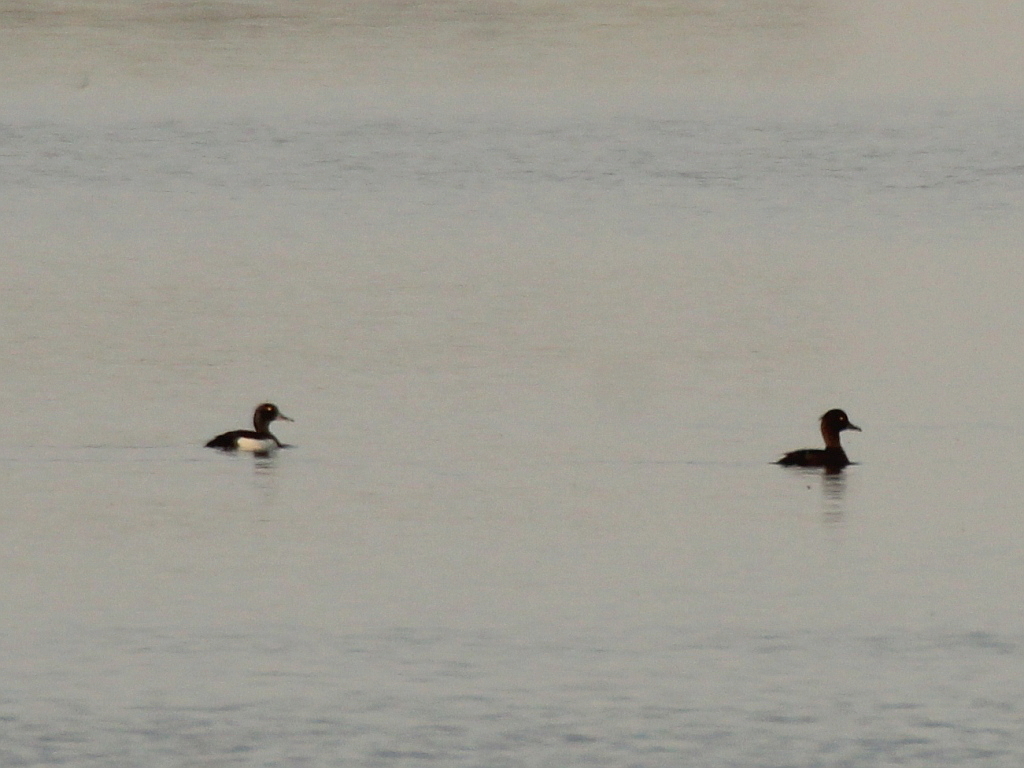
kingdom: Animalia
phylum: Chordata
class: Aves
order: Anseriformes
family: Anatidae
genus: Aythya
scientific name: Aythya fuligula
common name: Tufted duck
